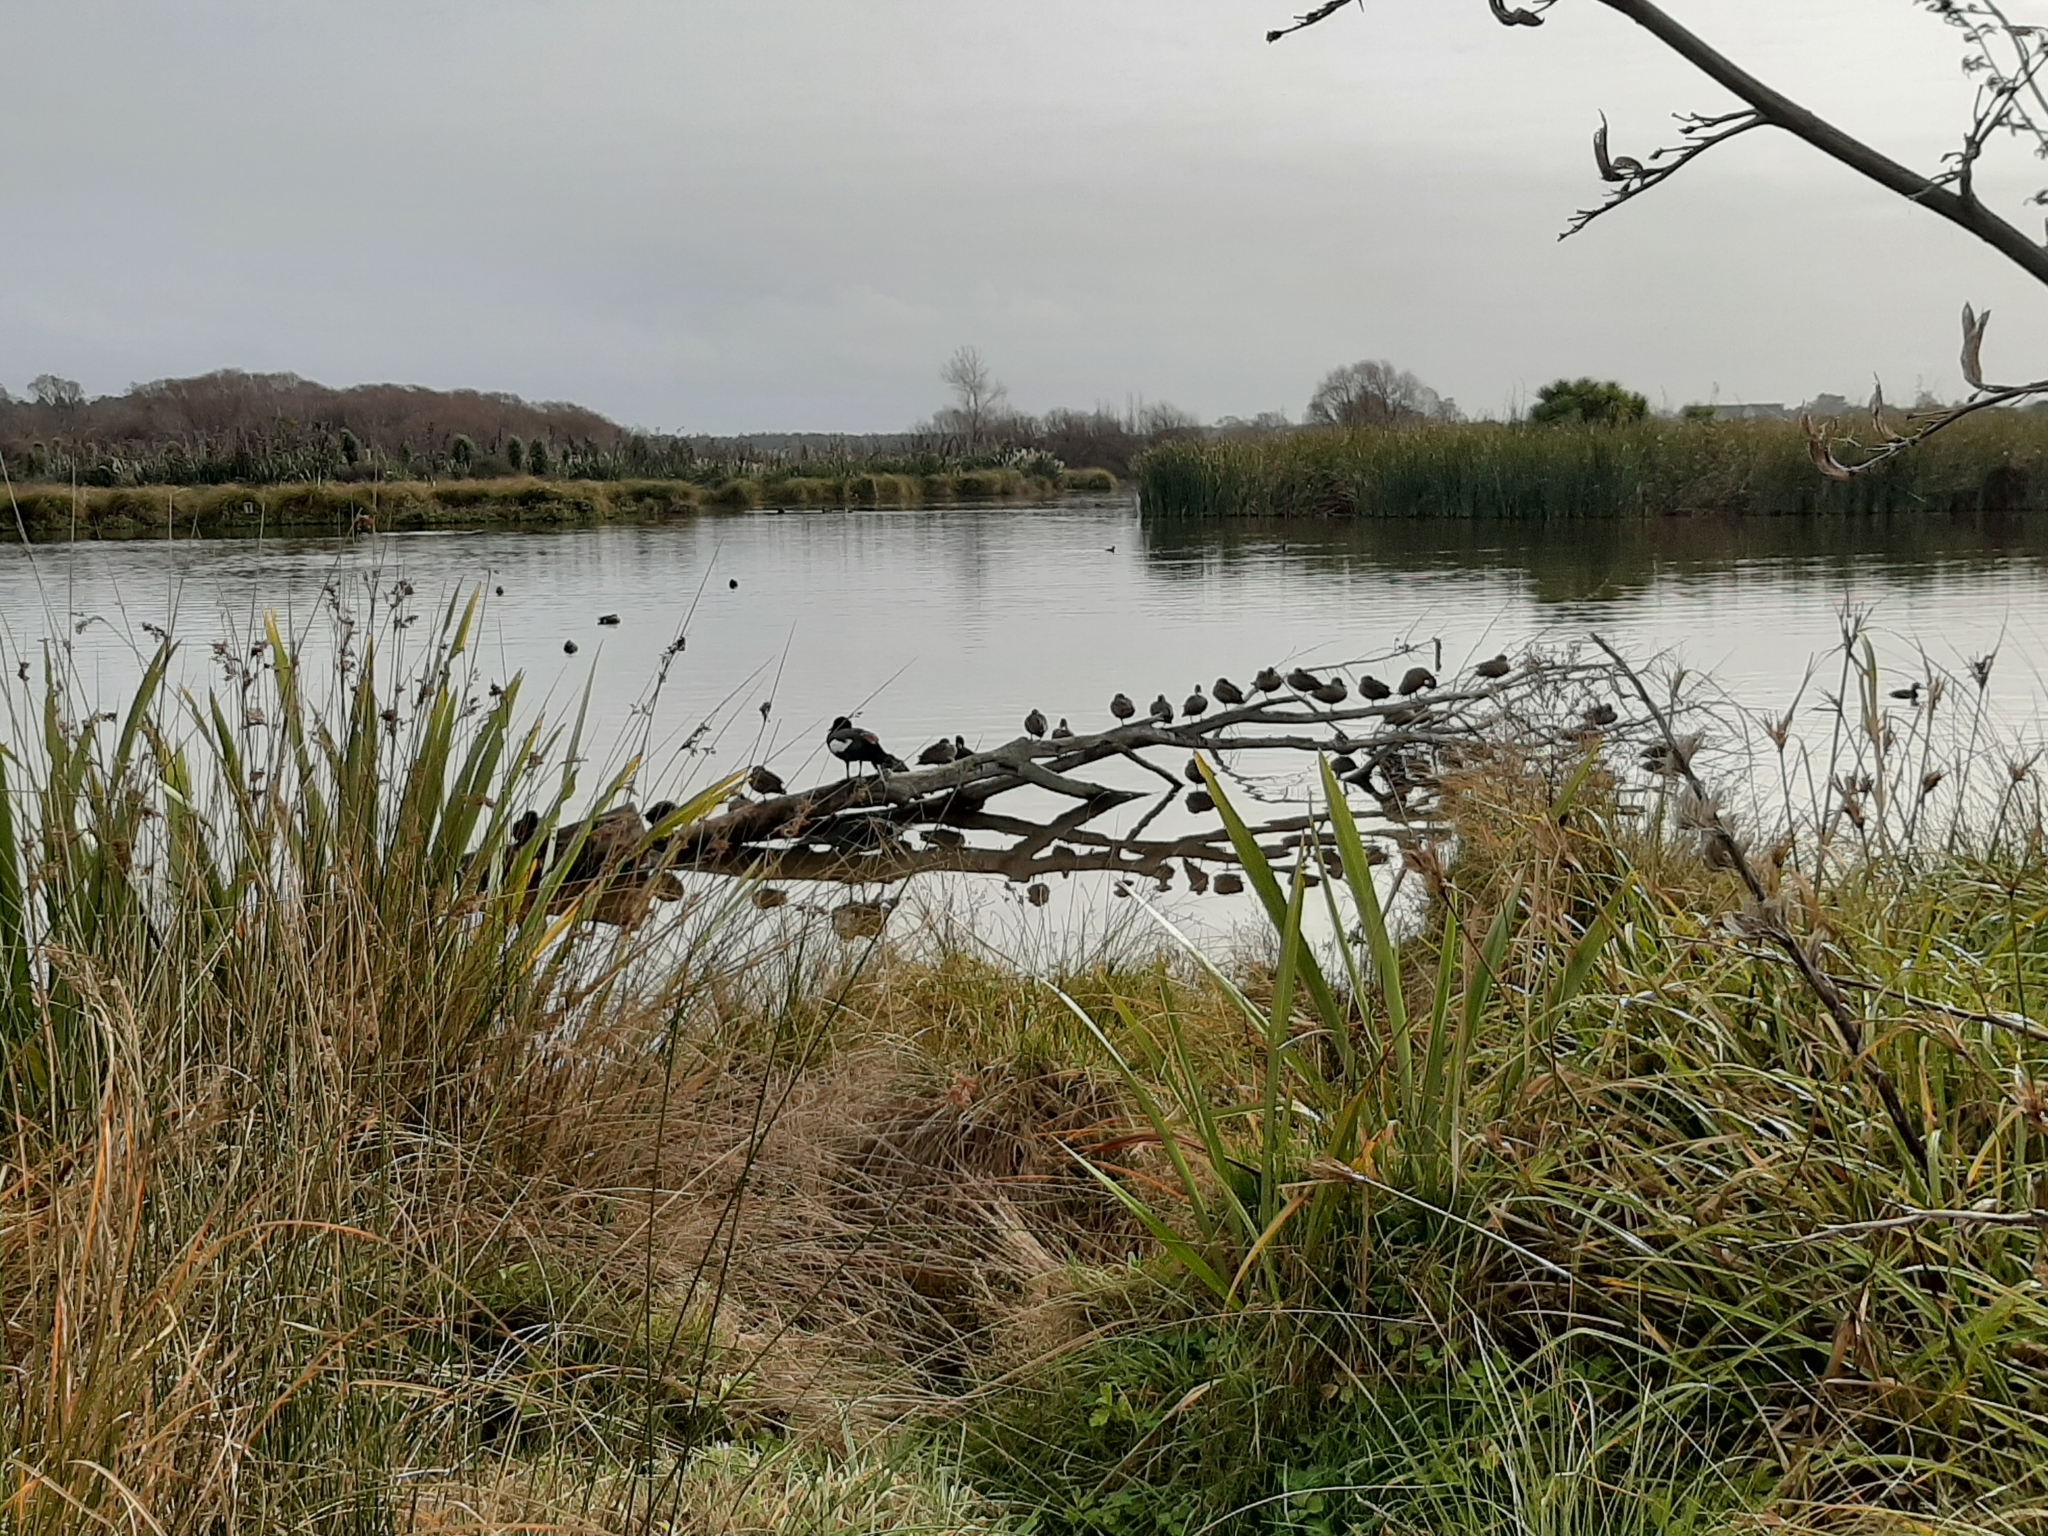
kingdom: Animalia
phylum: Chordata
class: Aves
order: Anseriformes
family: Anatidae
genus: Anas
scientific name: Anas gracilis
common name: Grey teal
